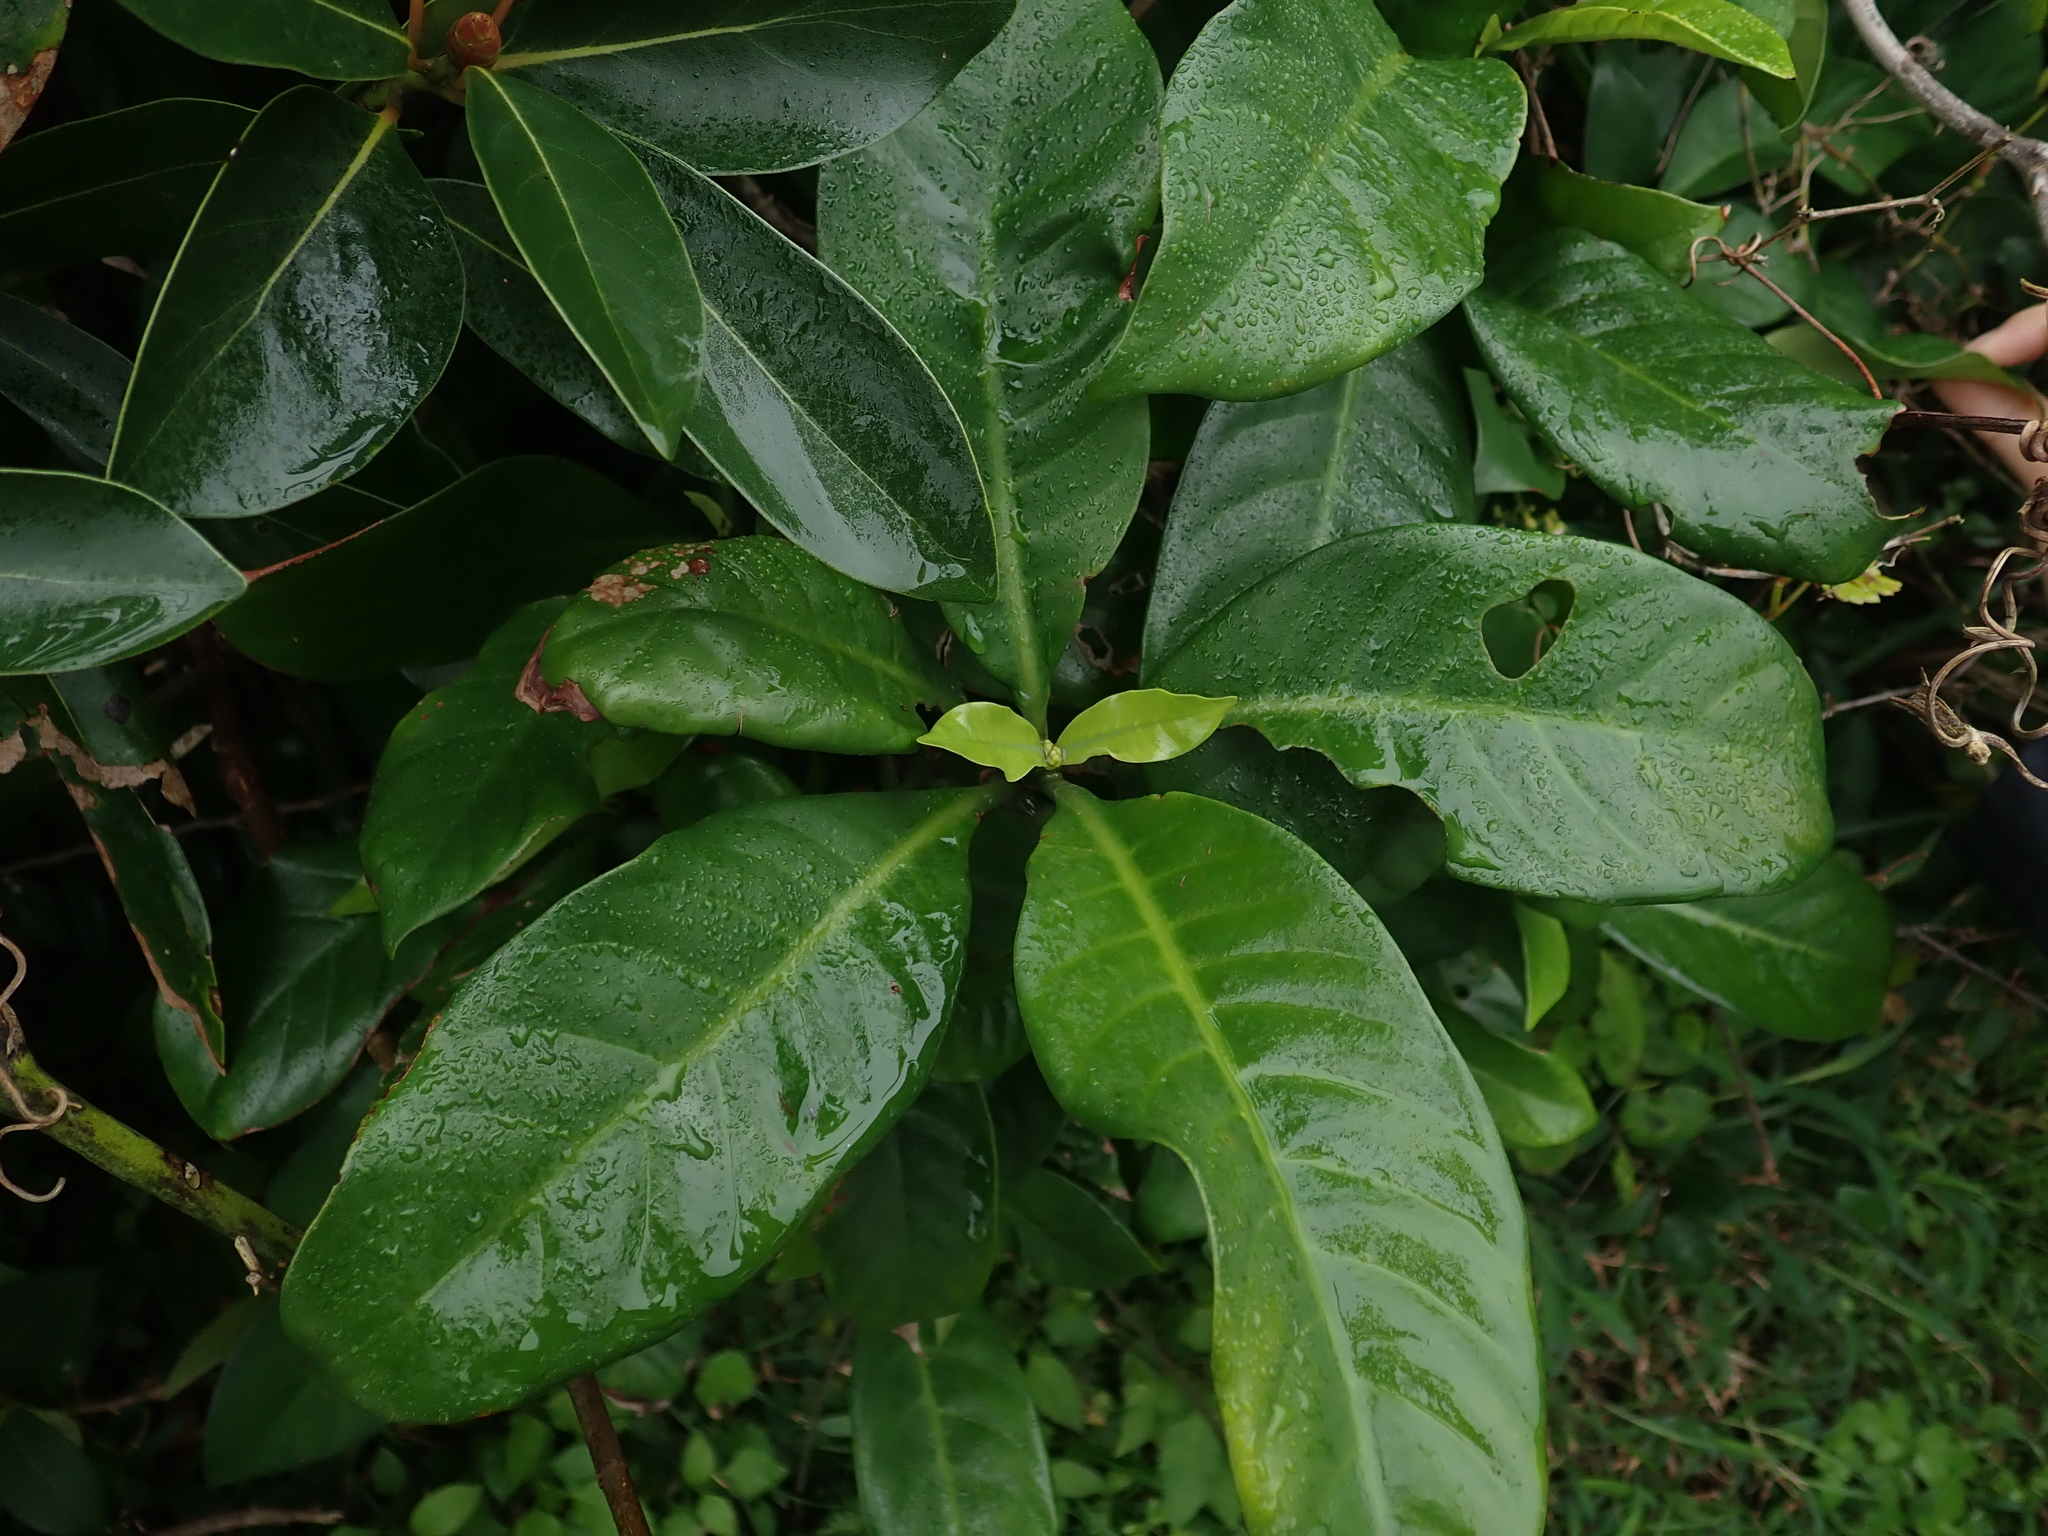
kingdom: Plantae
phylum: Tracheophyta
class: Magnoliopsida
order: Gentianales
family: Rubiaceae
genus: Psychotria
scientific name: Psychotria asiatica
